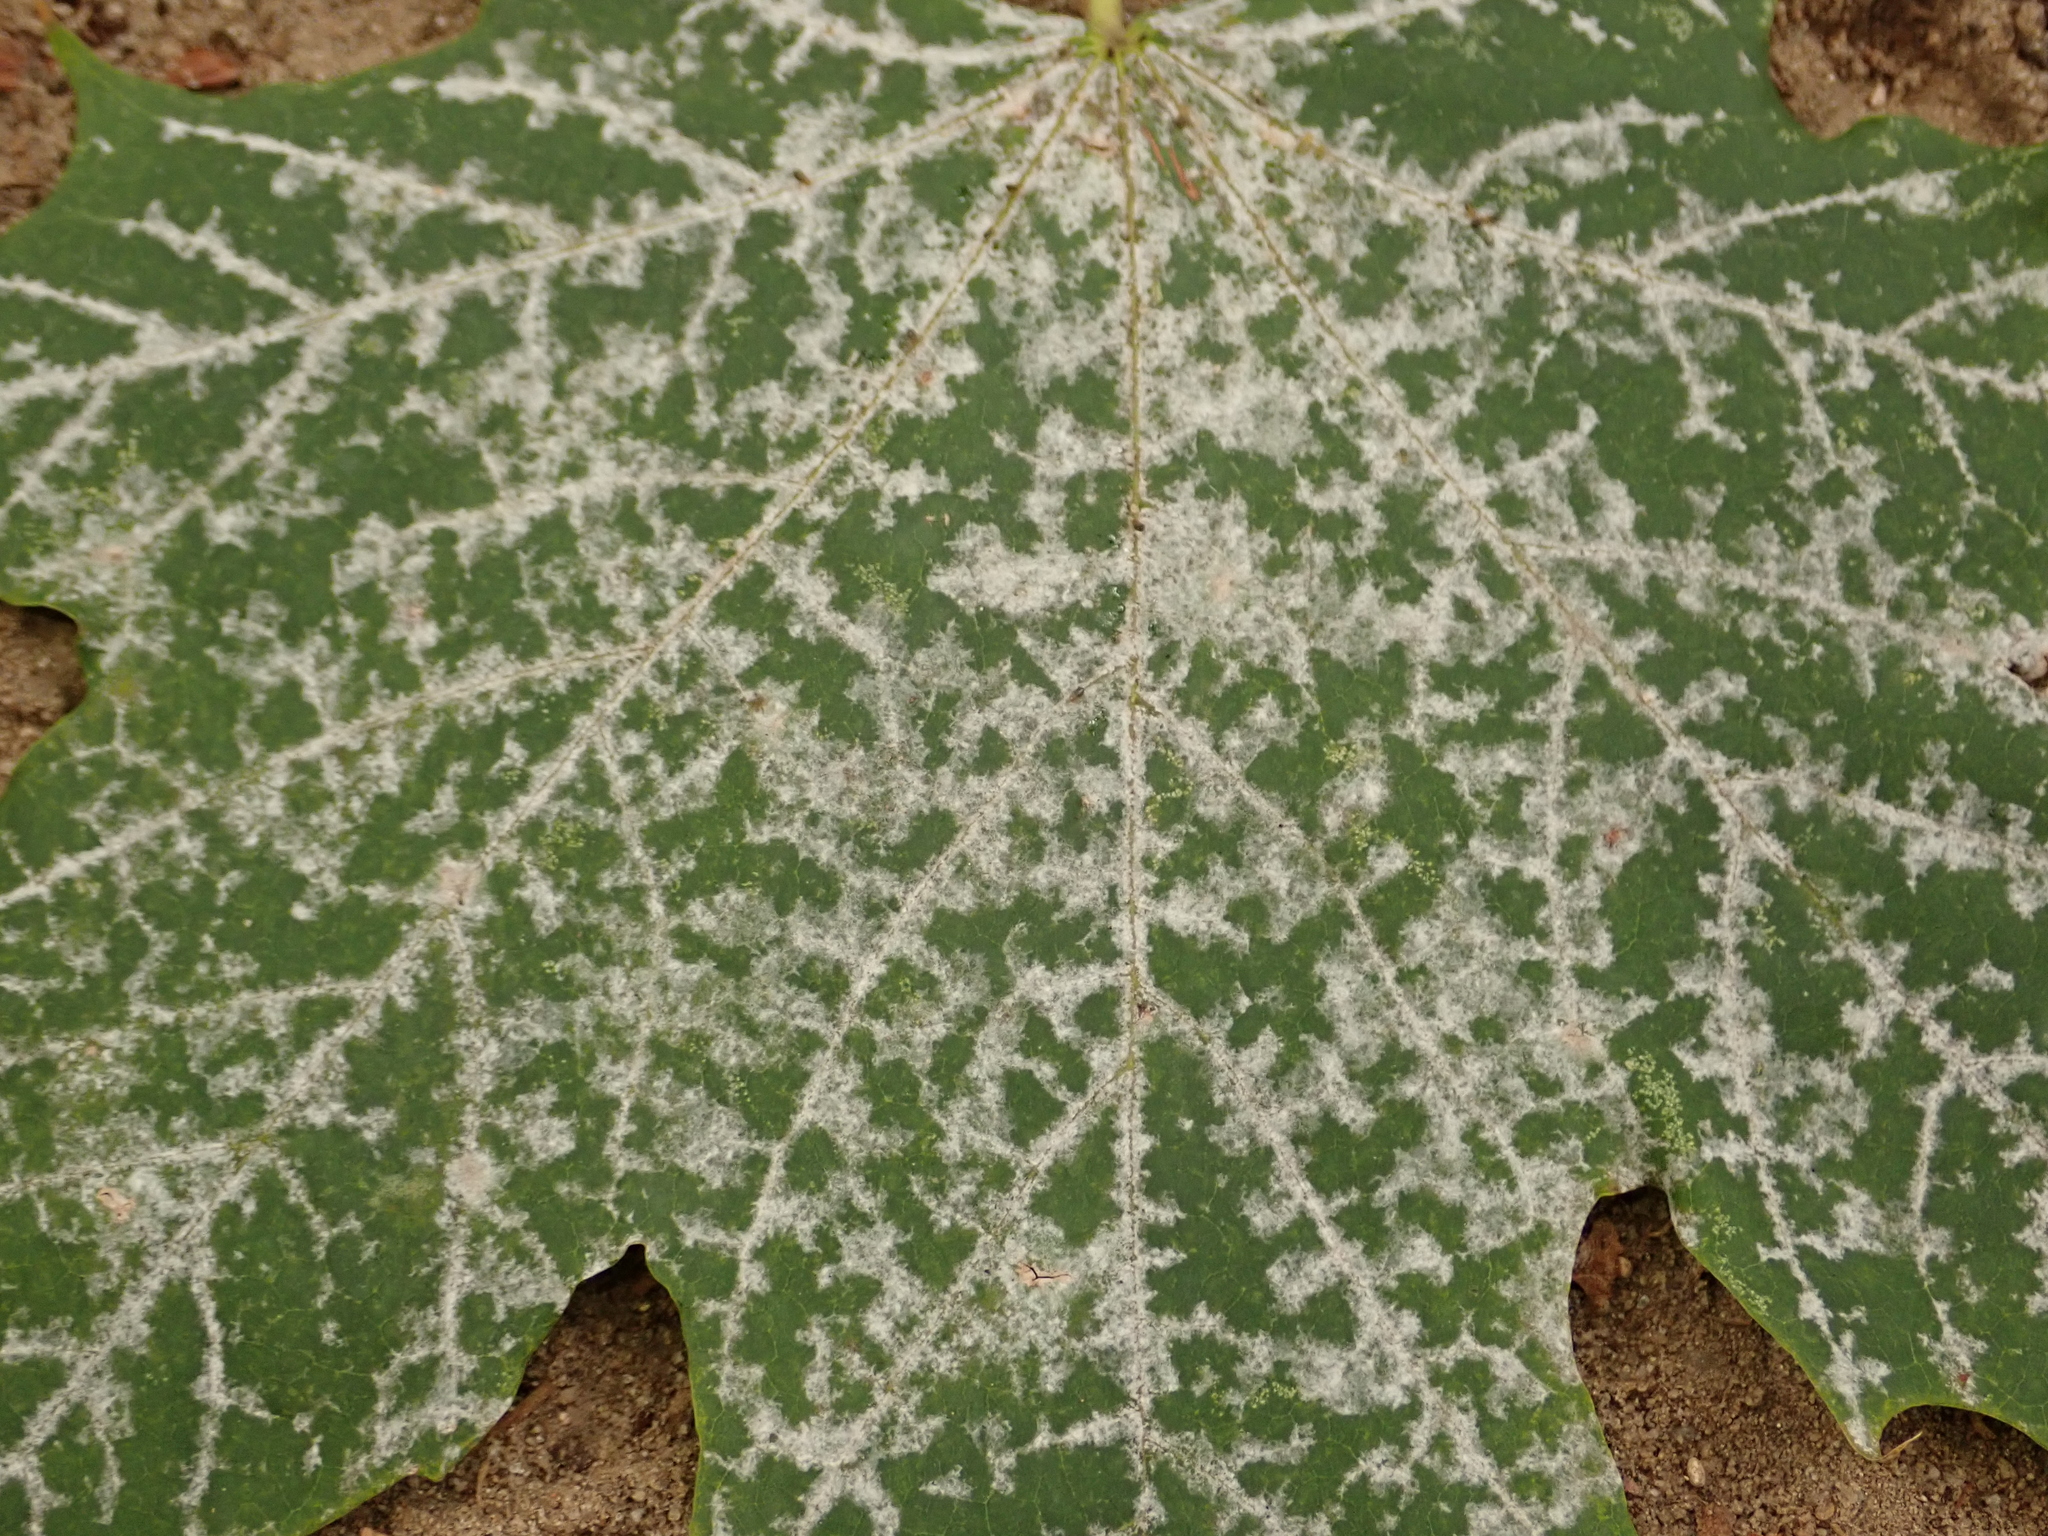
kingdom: Fungi
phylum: Ascomycota
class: Leotiomycetes
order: Helotiales
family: Erysiphaceae
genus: Sawadaea
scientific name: Sawadaea tulasnei
